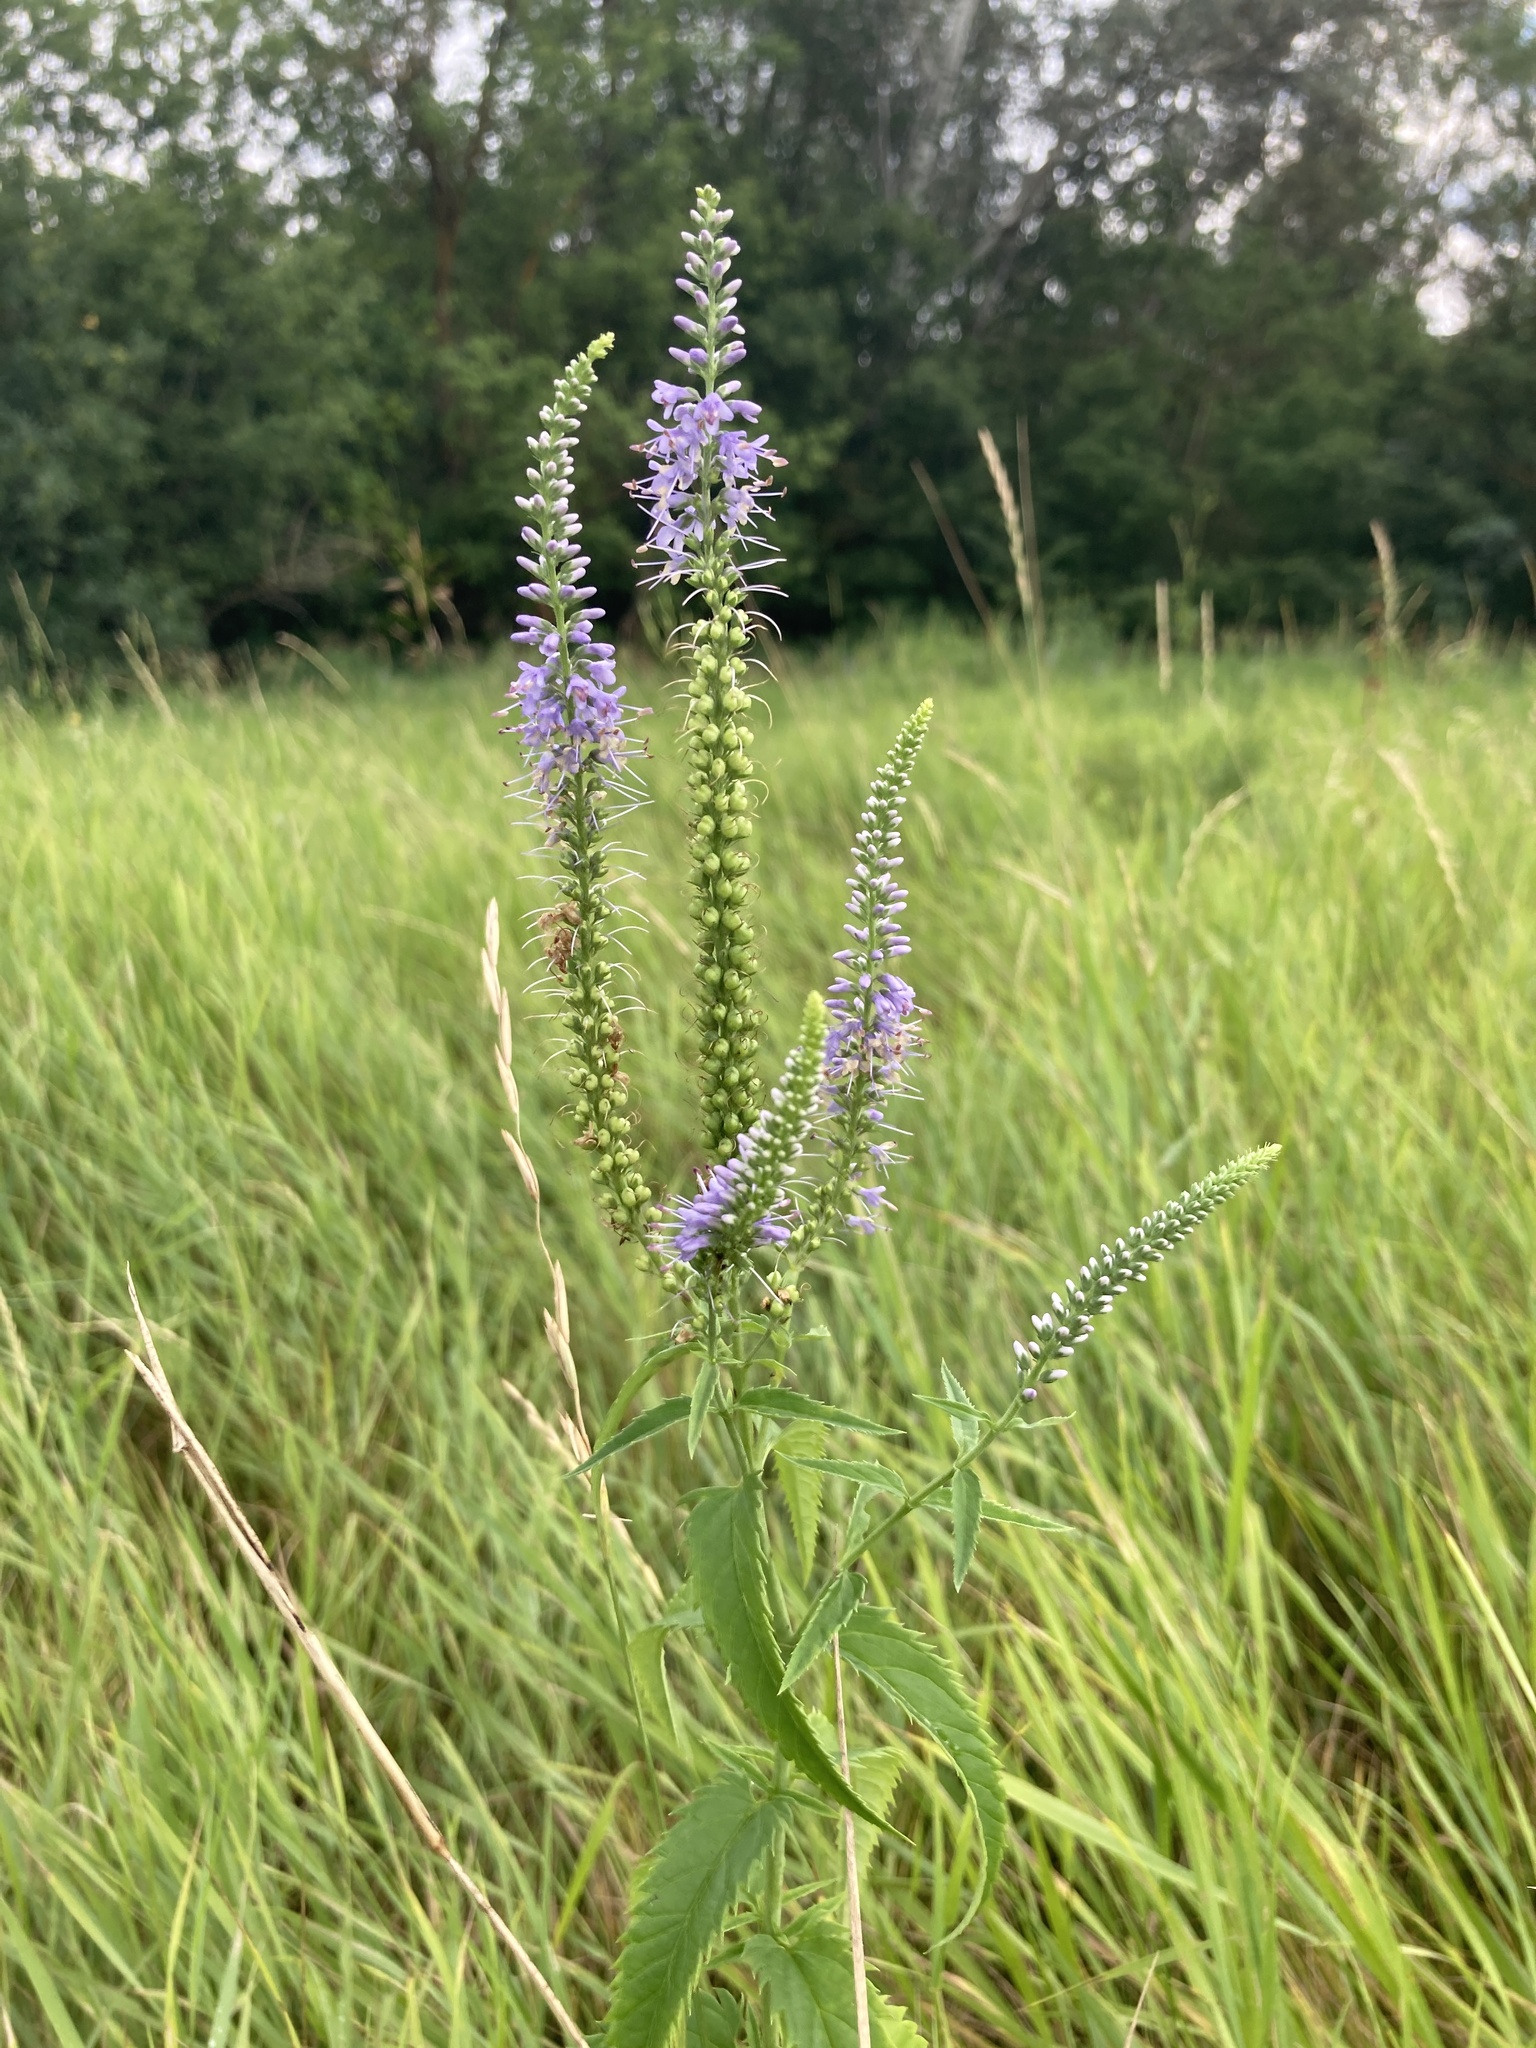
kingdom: Plantae
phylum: Tracheophyta
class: Magnoliopsida
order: Lamiales
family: Plantaginaceae
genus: Veronica
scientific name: Veronica longifolia
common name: Garden speedwell
